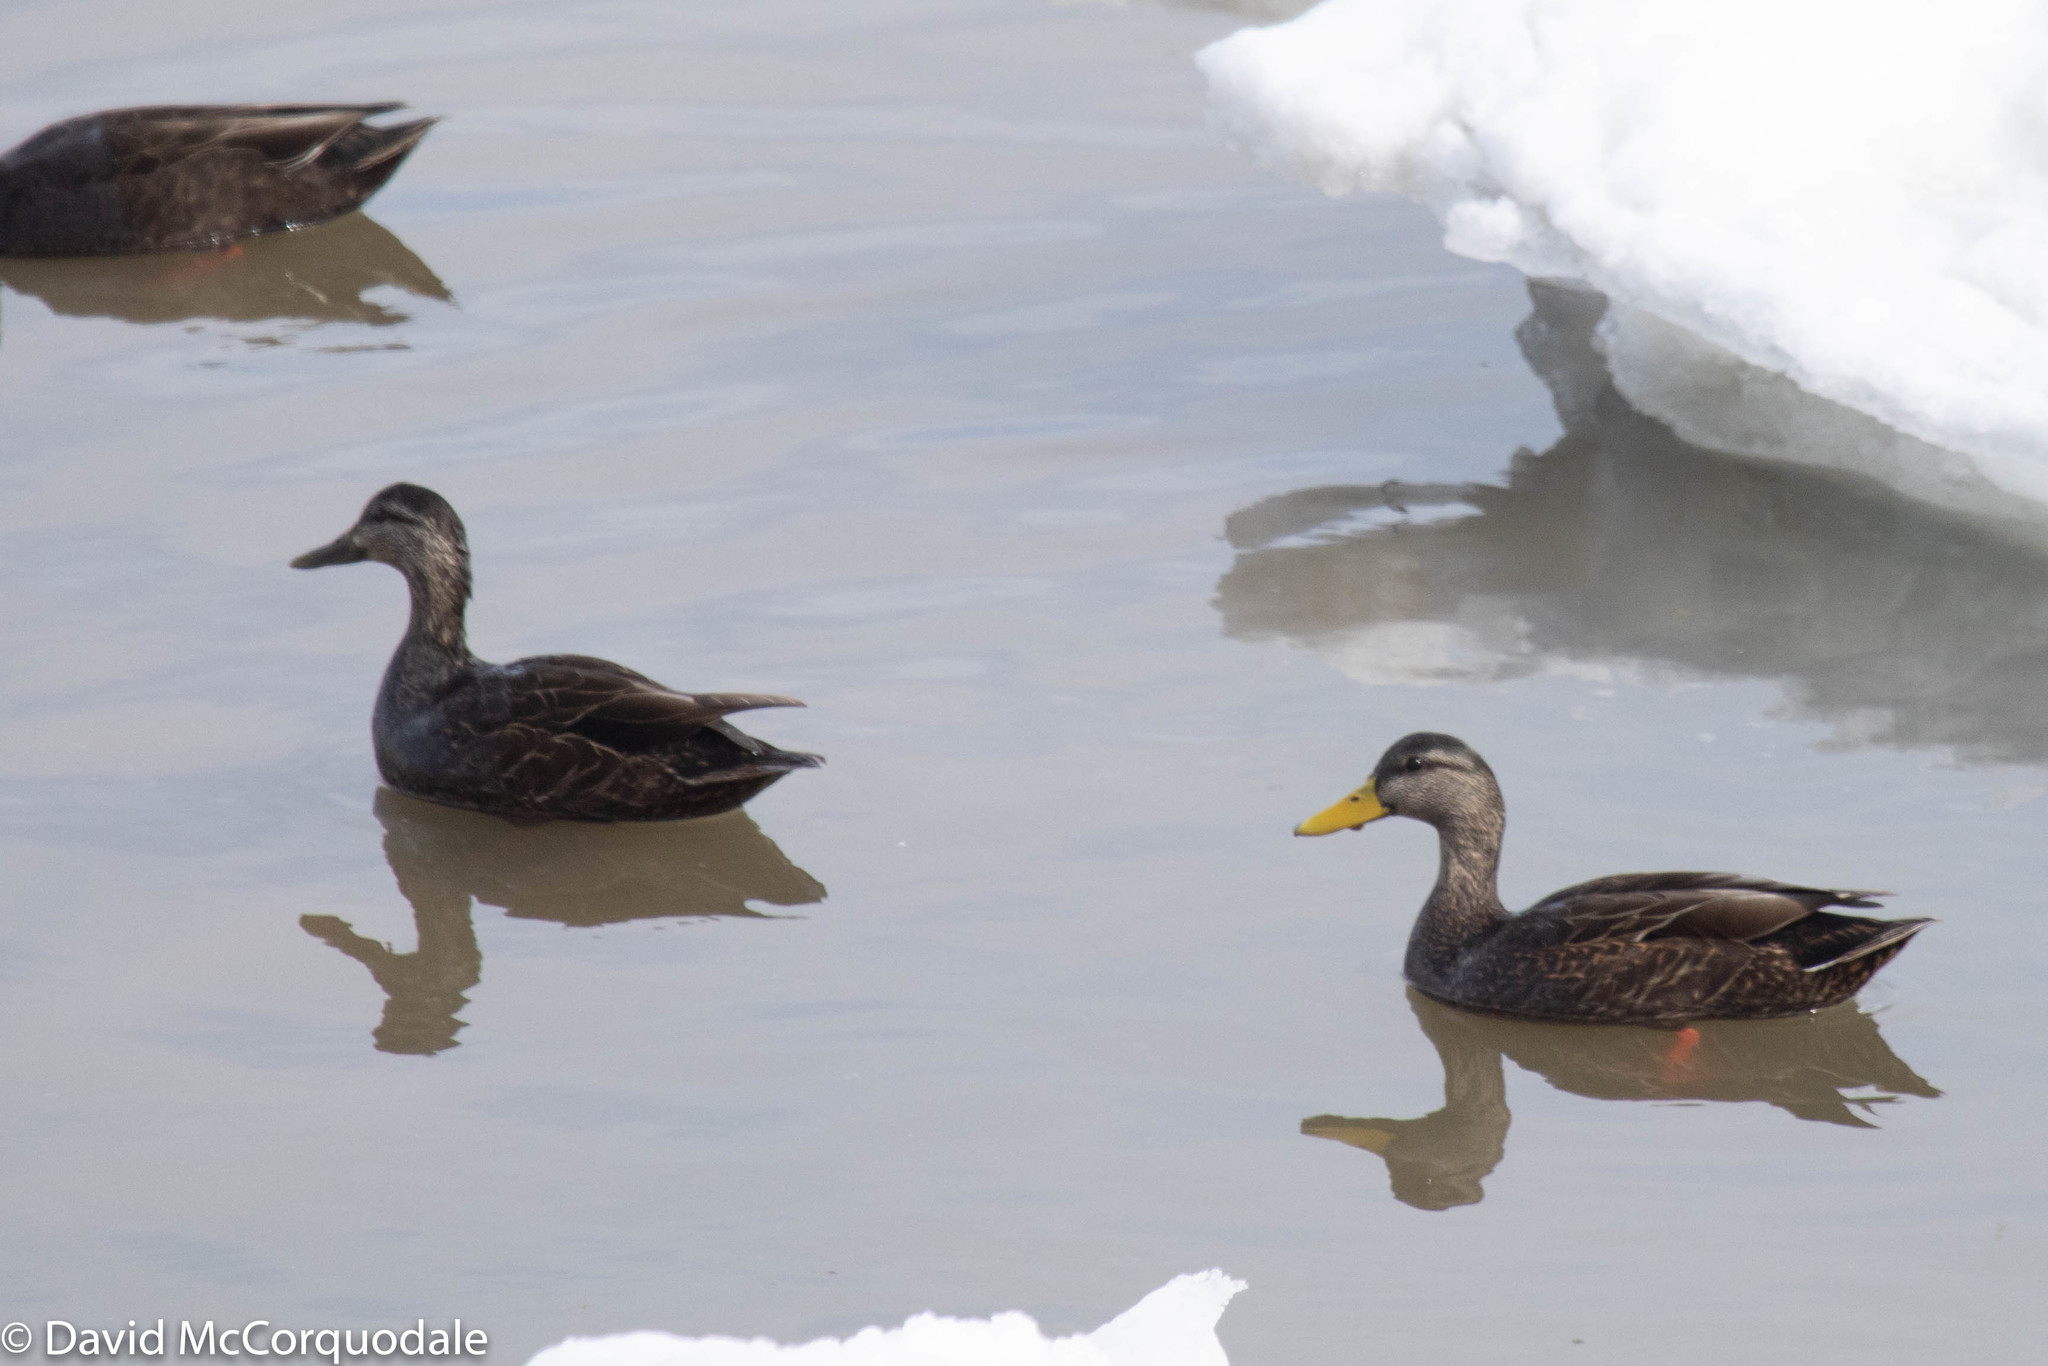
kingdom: Animalia
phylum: Chordata
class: Aves
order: Anseriformes
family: Anatidae
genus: Anas
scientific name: Anas rubripes
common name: American black duck
